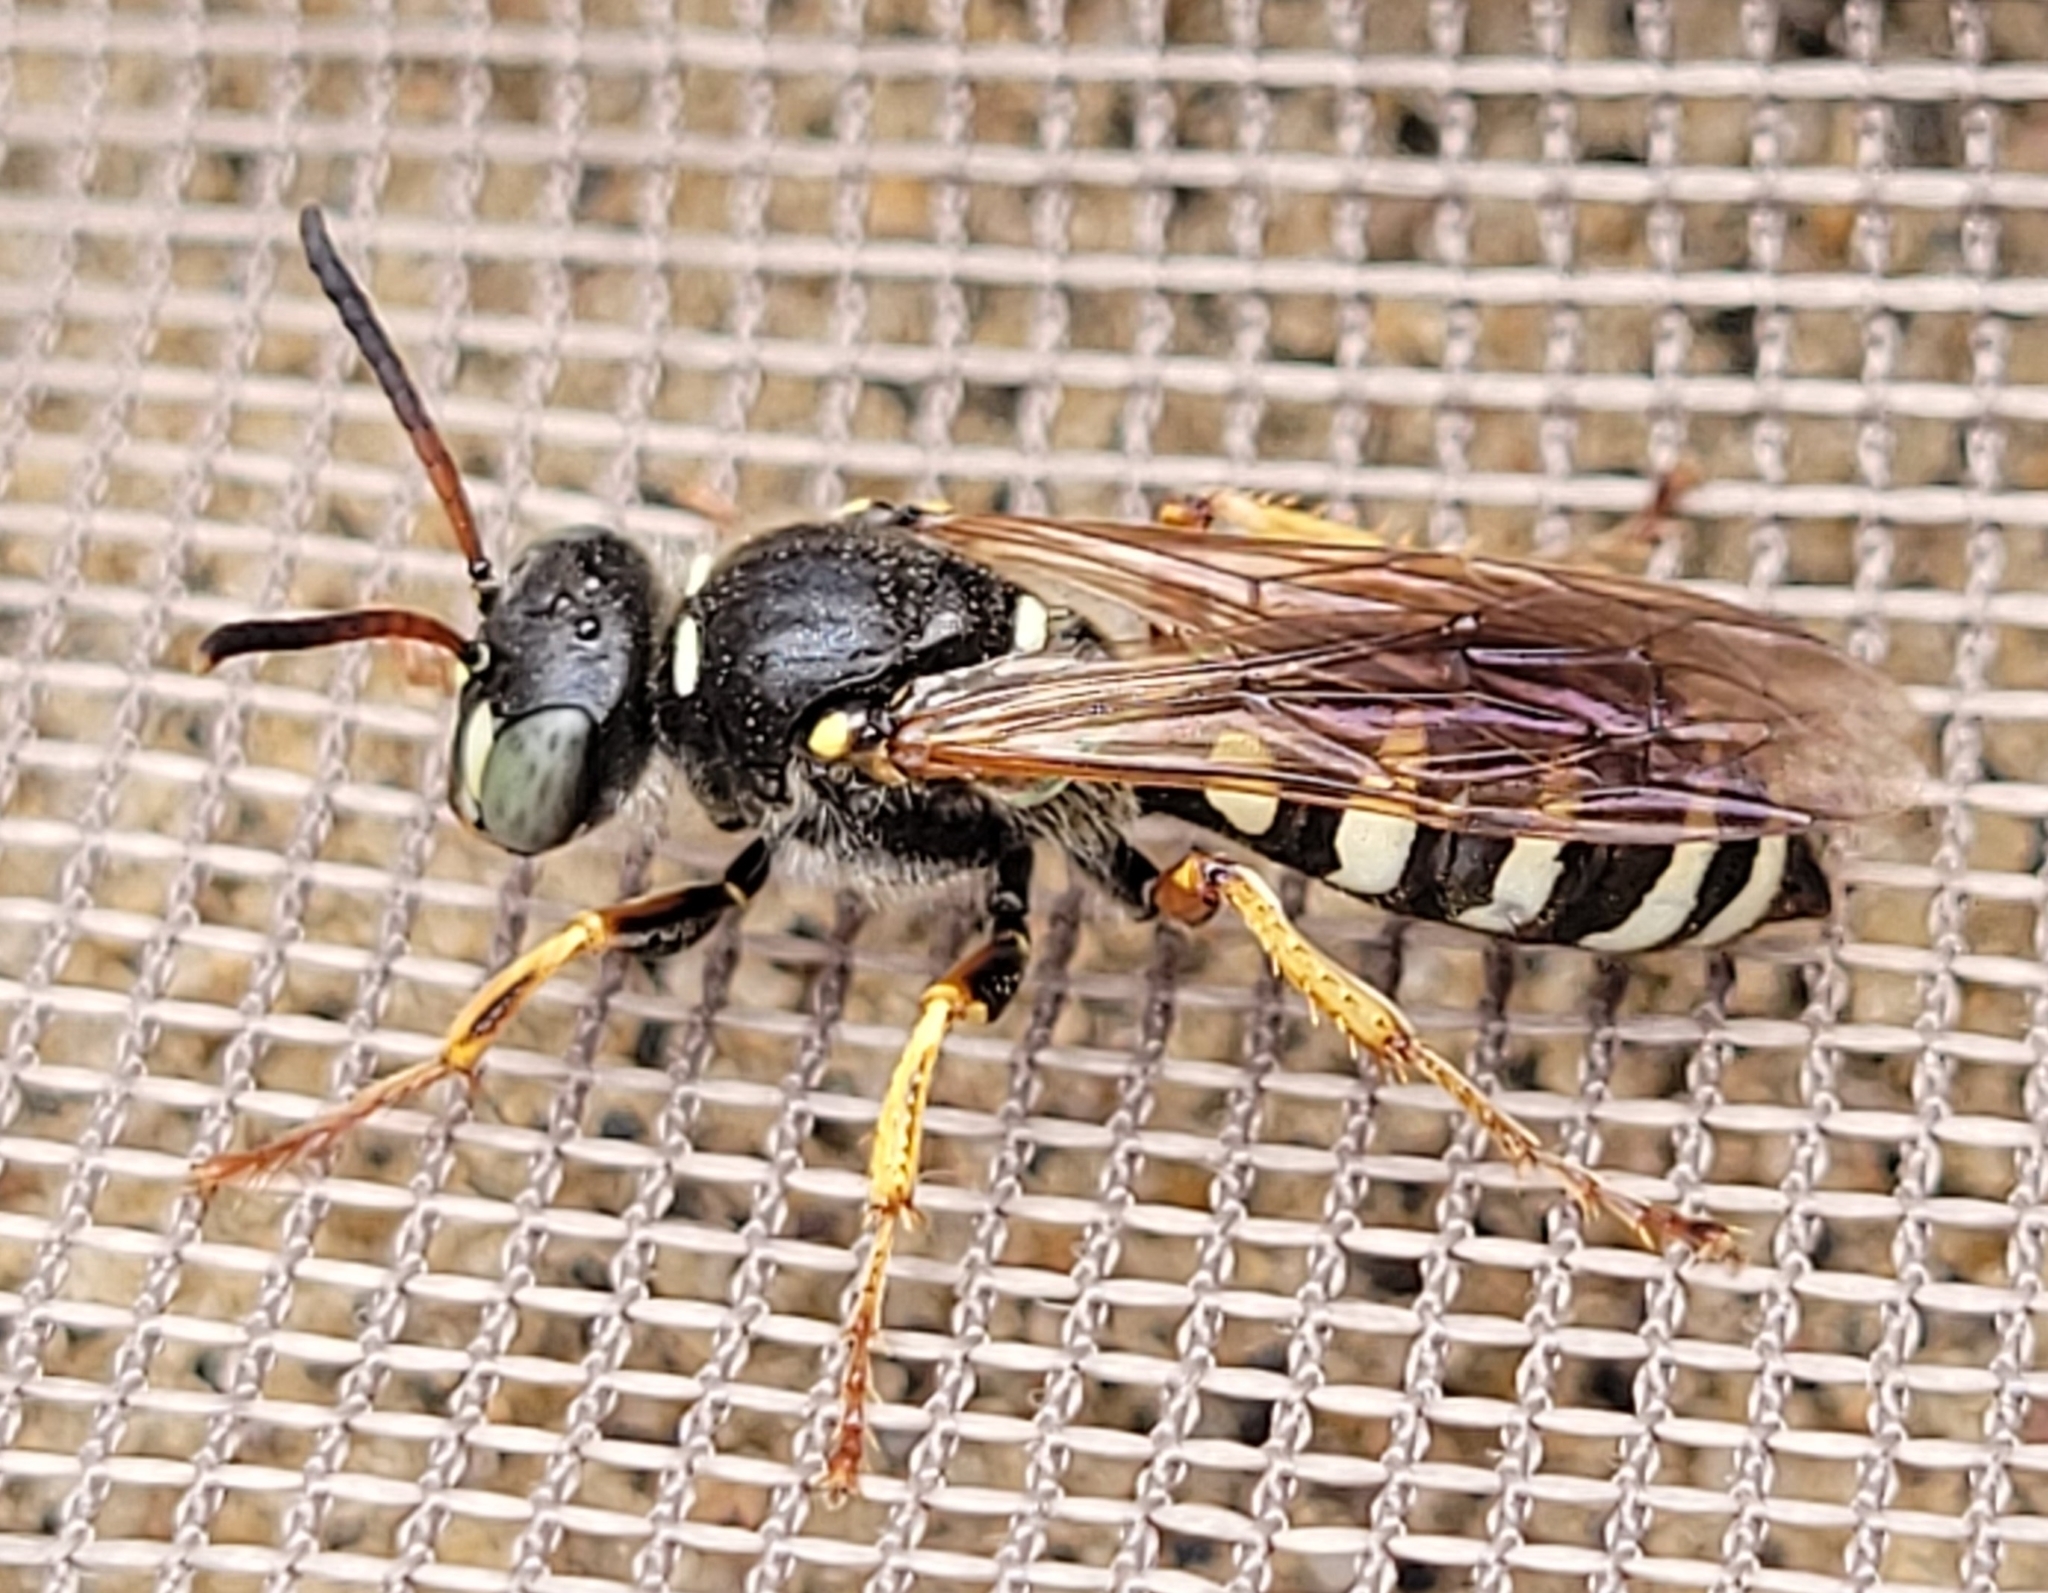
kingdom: Animalia
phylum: Arthropoda
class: Insecta
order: Hymenoptera
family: Crabronidae
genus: Aphilanthops
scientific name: Aphilanthops frigidus
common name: Queen ant kidnapper
